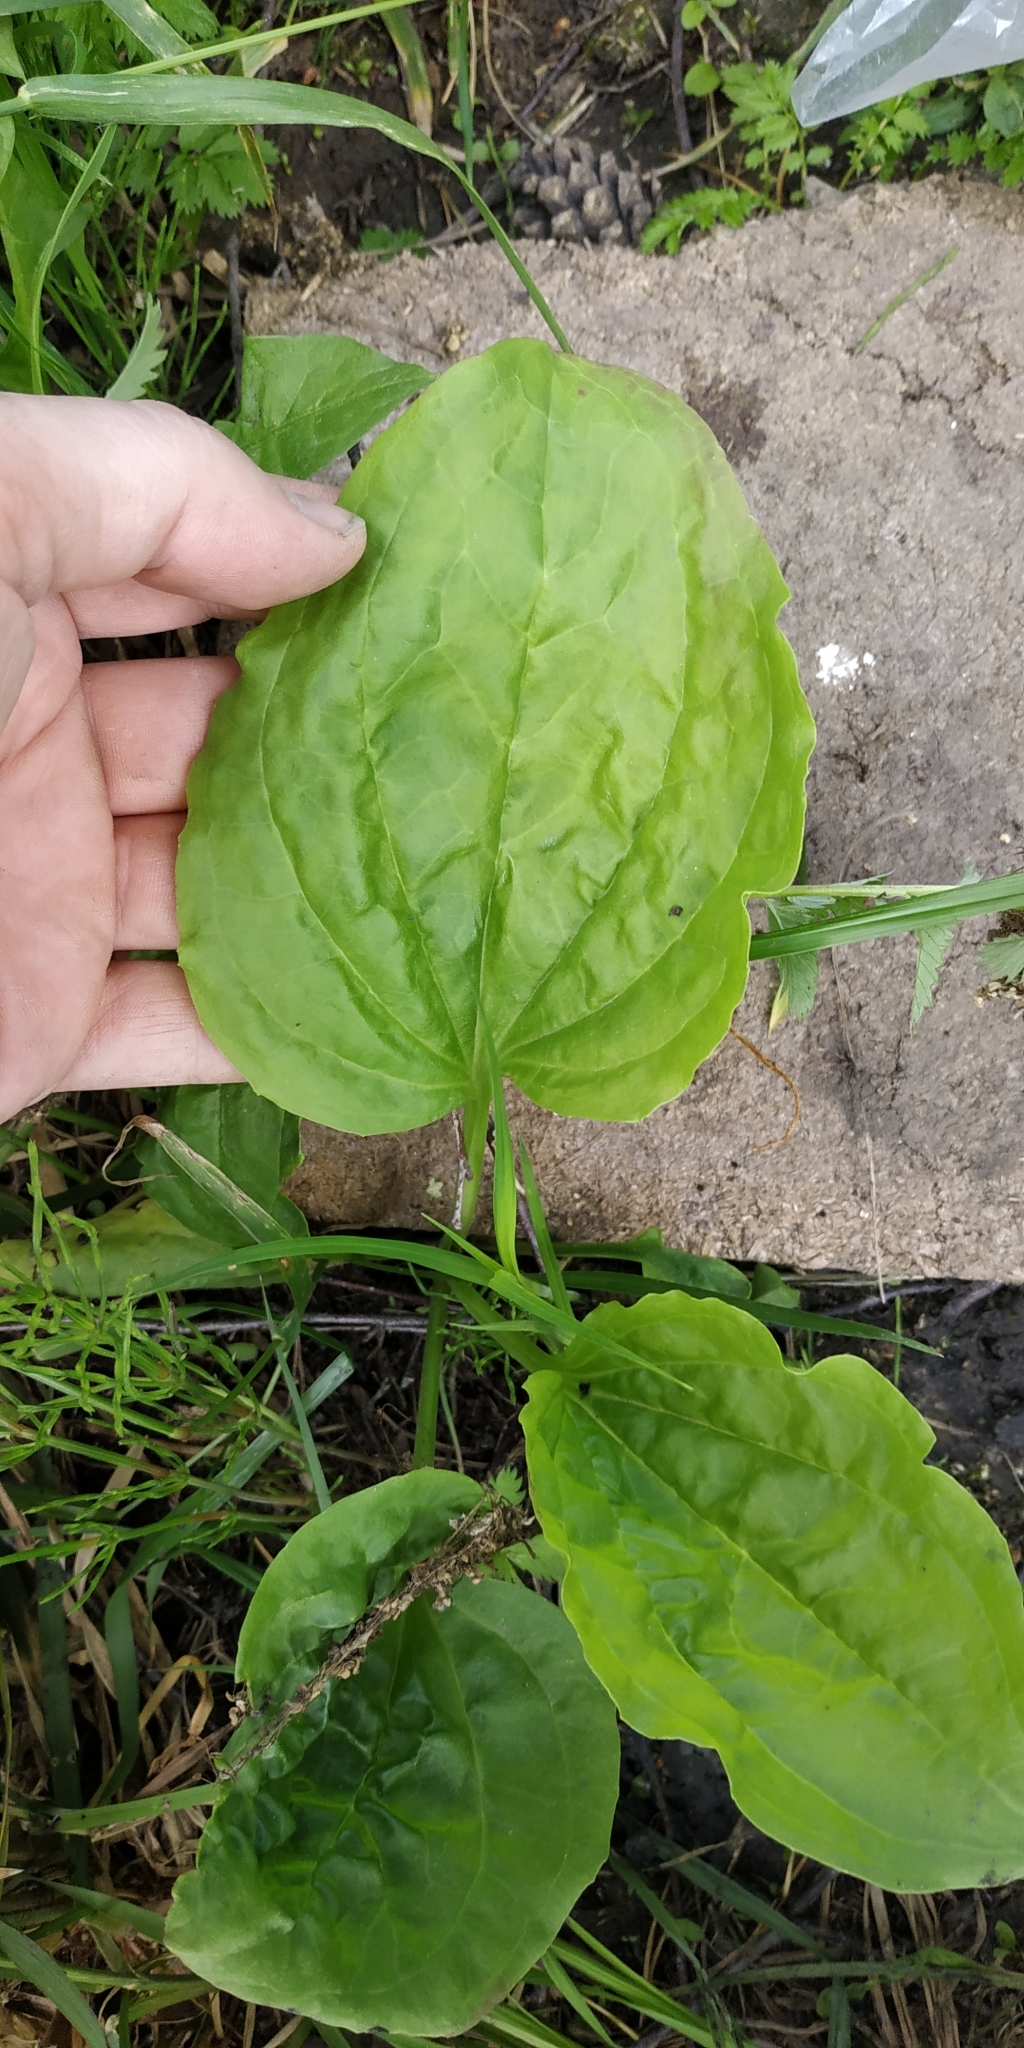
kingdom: Plantae
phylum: Tracheophyta
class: Magnoliopsida
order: Lamiales
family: Plantaginaceae
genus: Plantago
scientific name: Plantago major
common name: Common plantain
